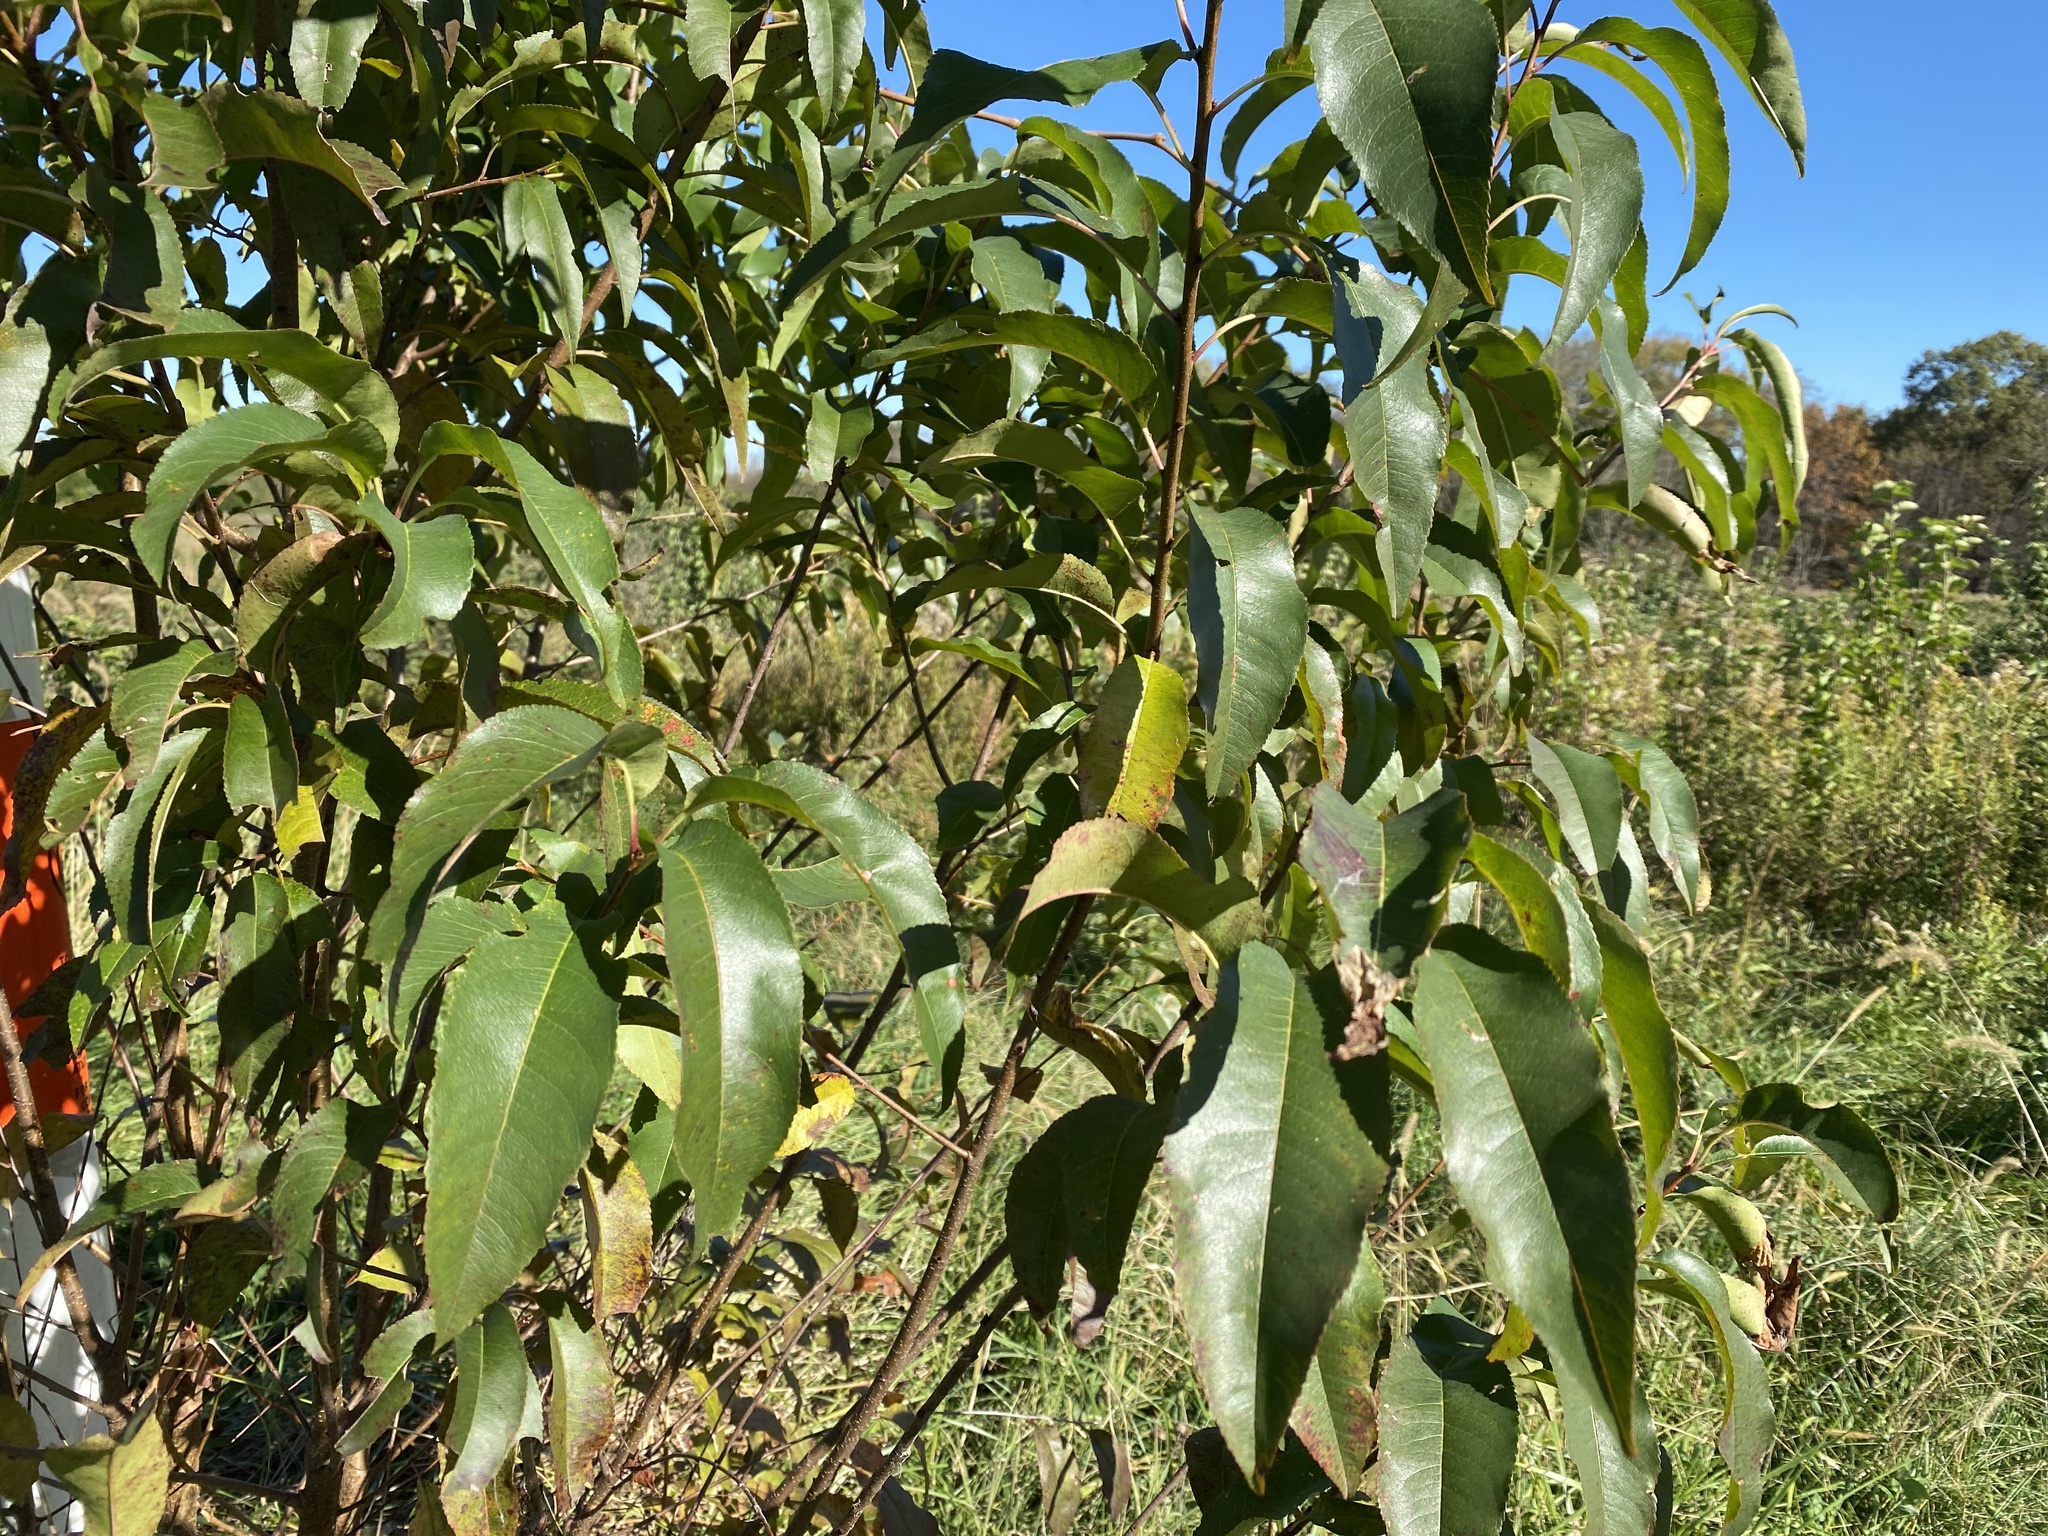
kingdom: Plantae
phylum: Tracheophyta
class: Magnoliopsida
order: Rosales
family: Rosaceae
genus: Prunus
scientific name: Prunus serotina
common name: Black cherry
